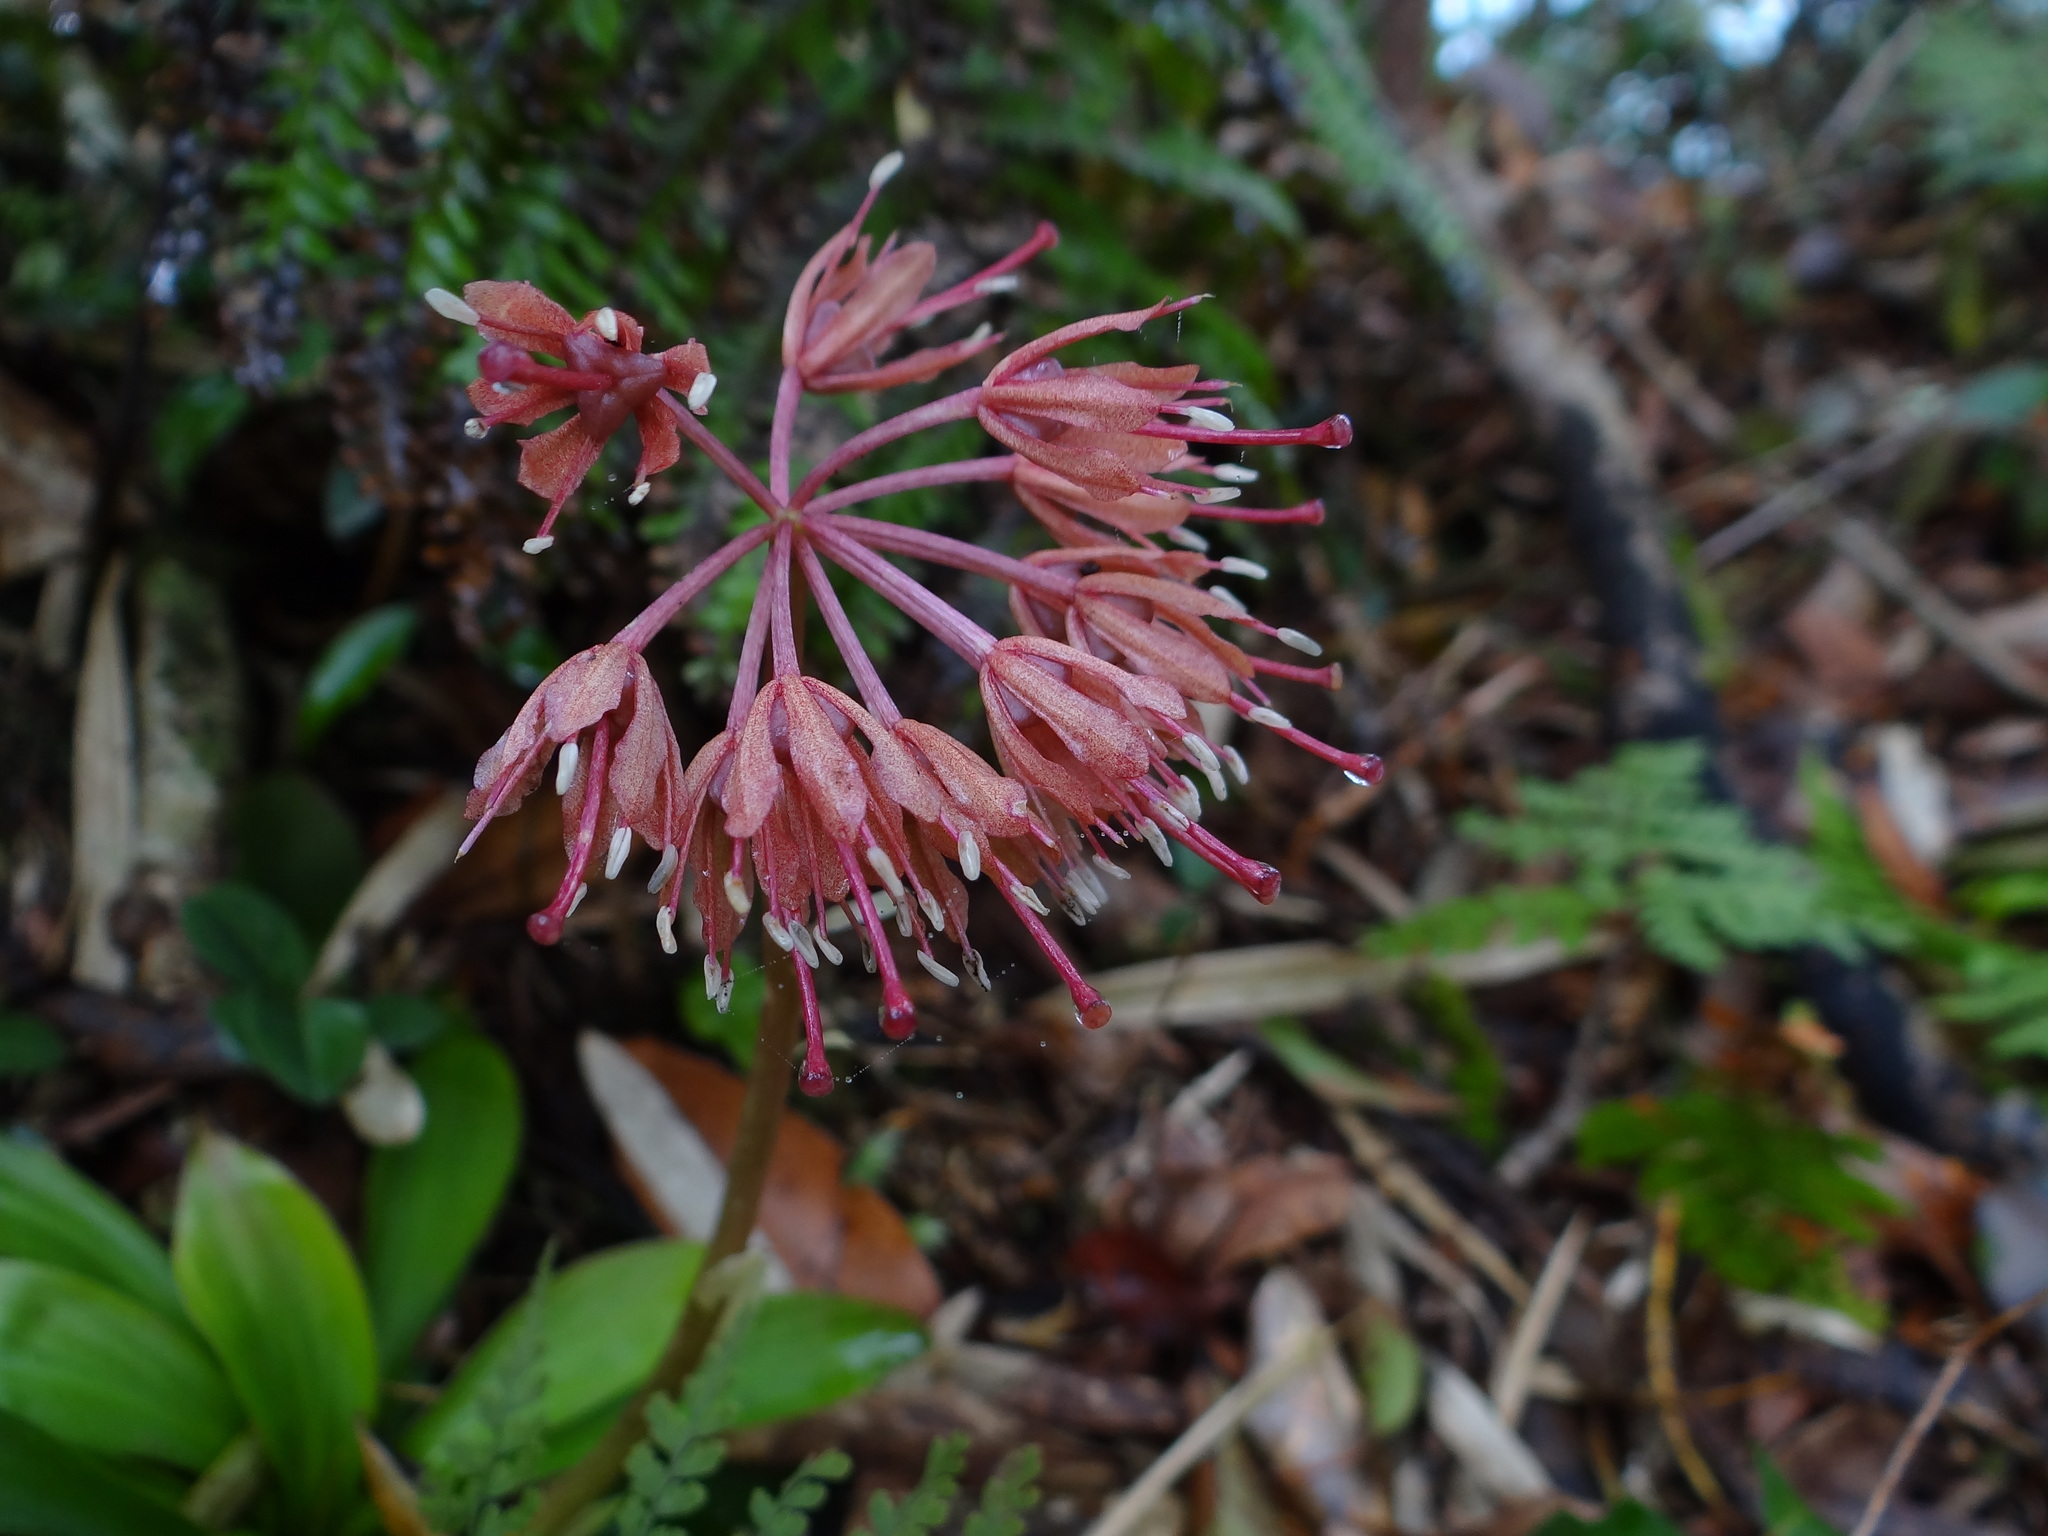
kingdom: Plantae
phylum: Tracheophyta
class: Liliopsida
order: Liliales
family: Melanthiaceae
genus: Helonias
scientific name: Helonias umbellata
